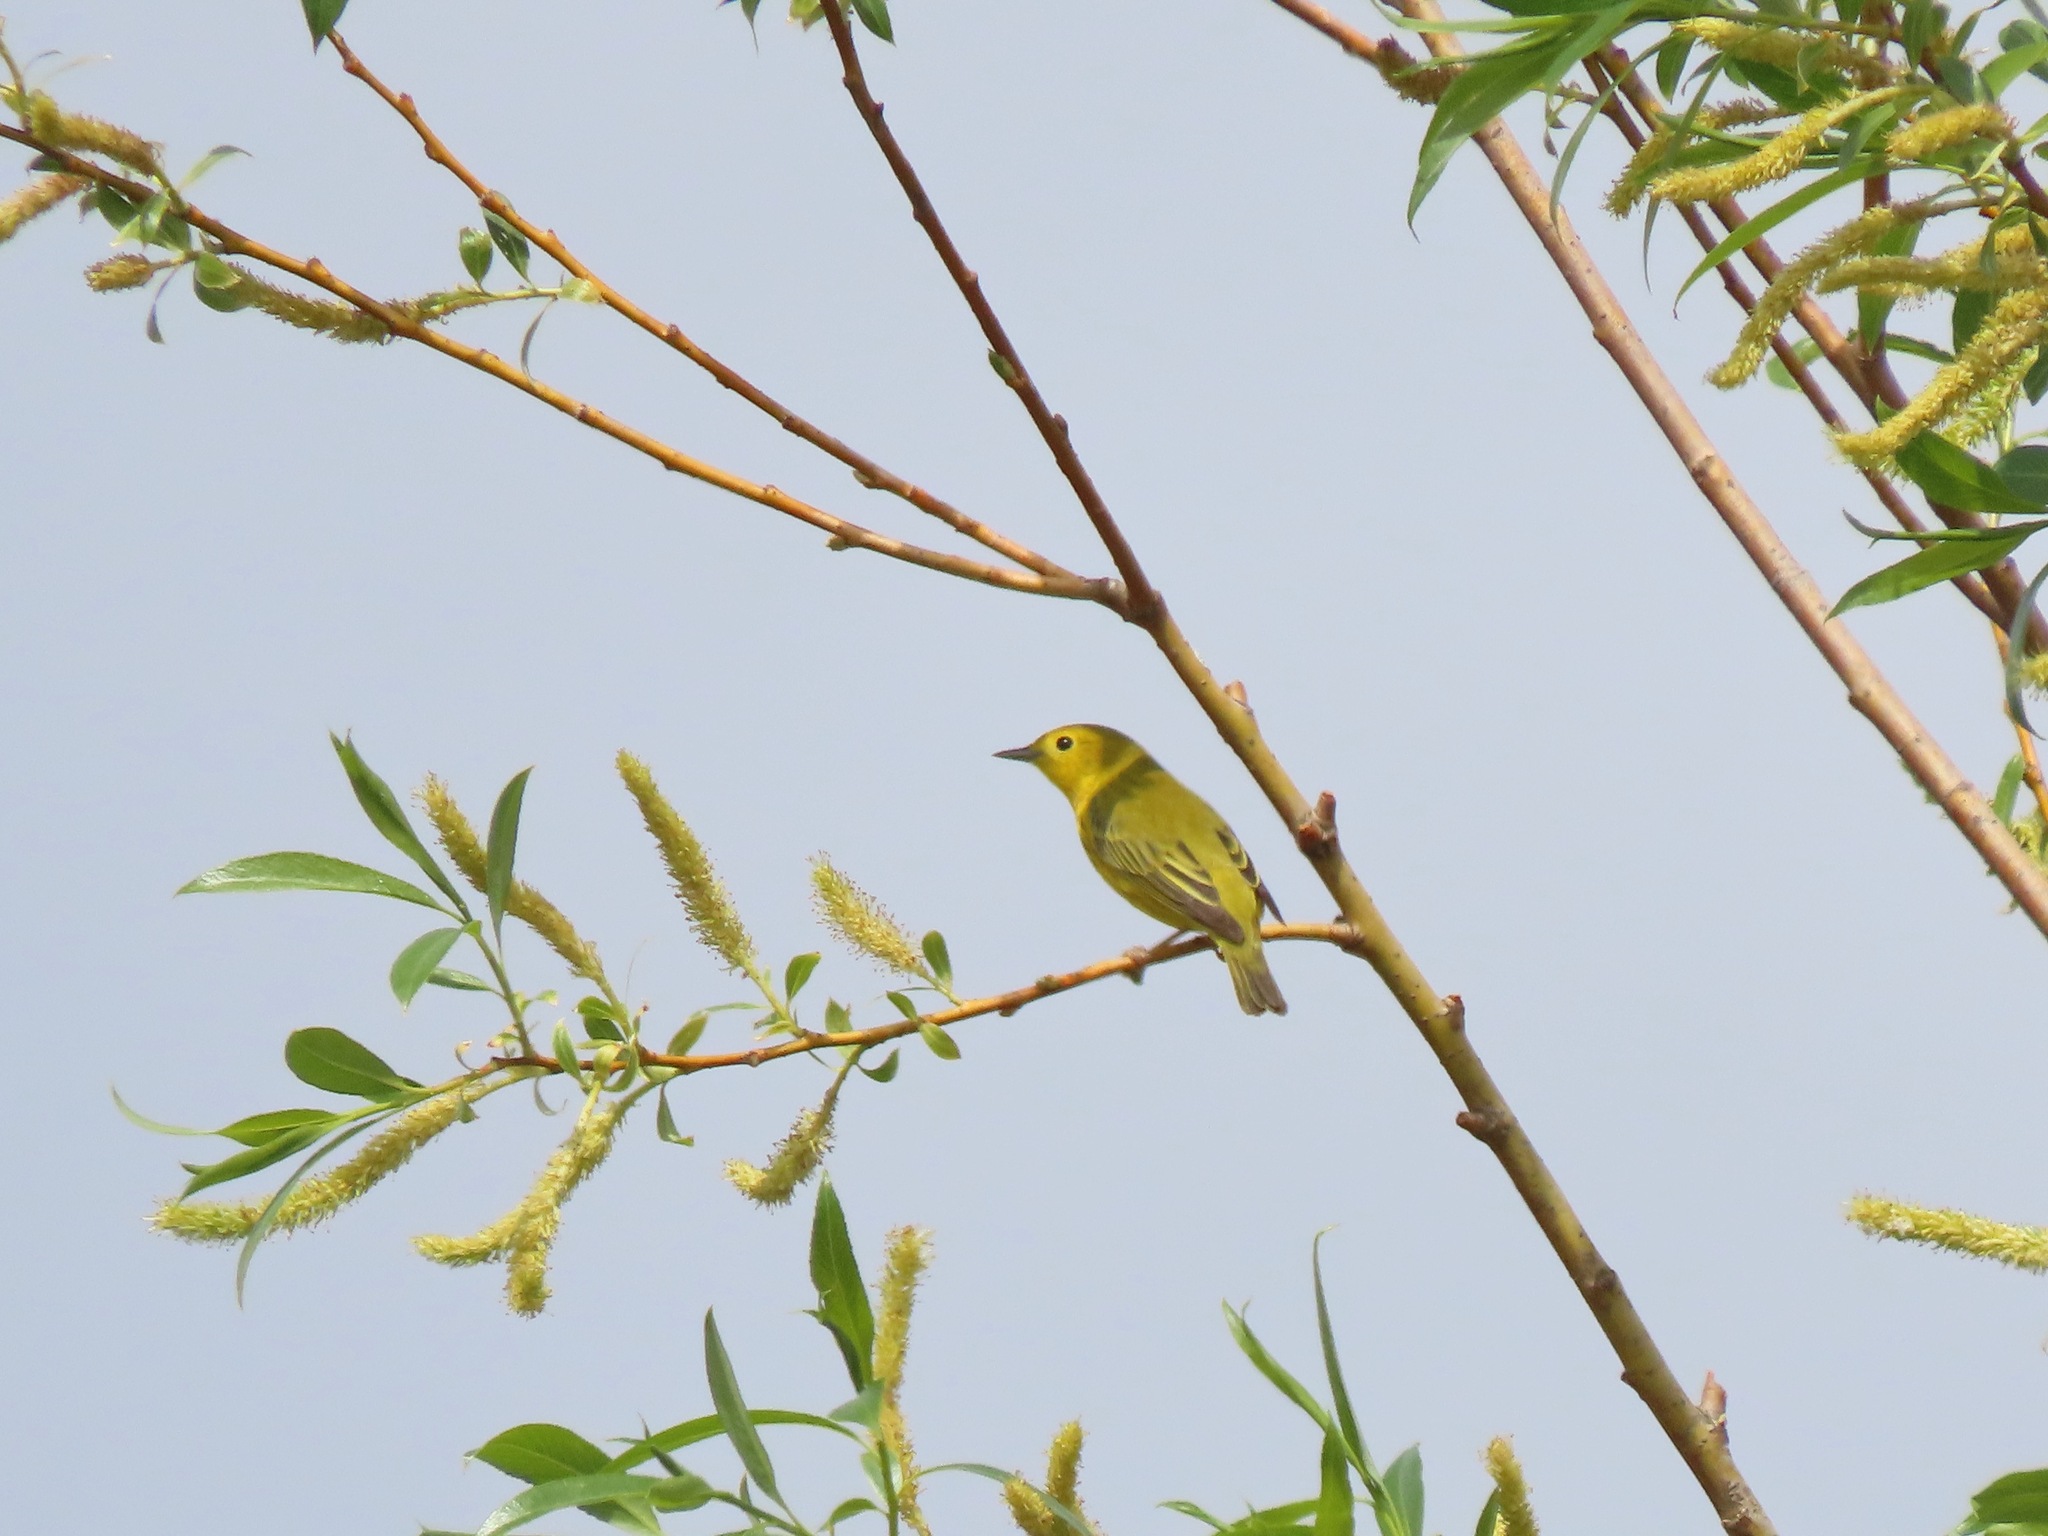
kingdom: Animalia
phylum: Chordata
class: Aves
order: Passeriformes
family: Parulidae
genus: Setophaga
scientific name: Setophaga petechia
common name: Yellow warbler
